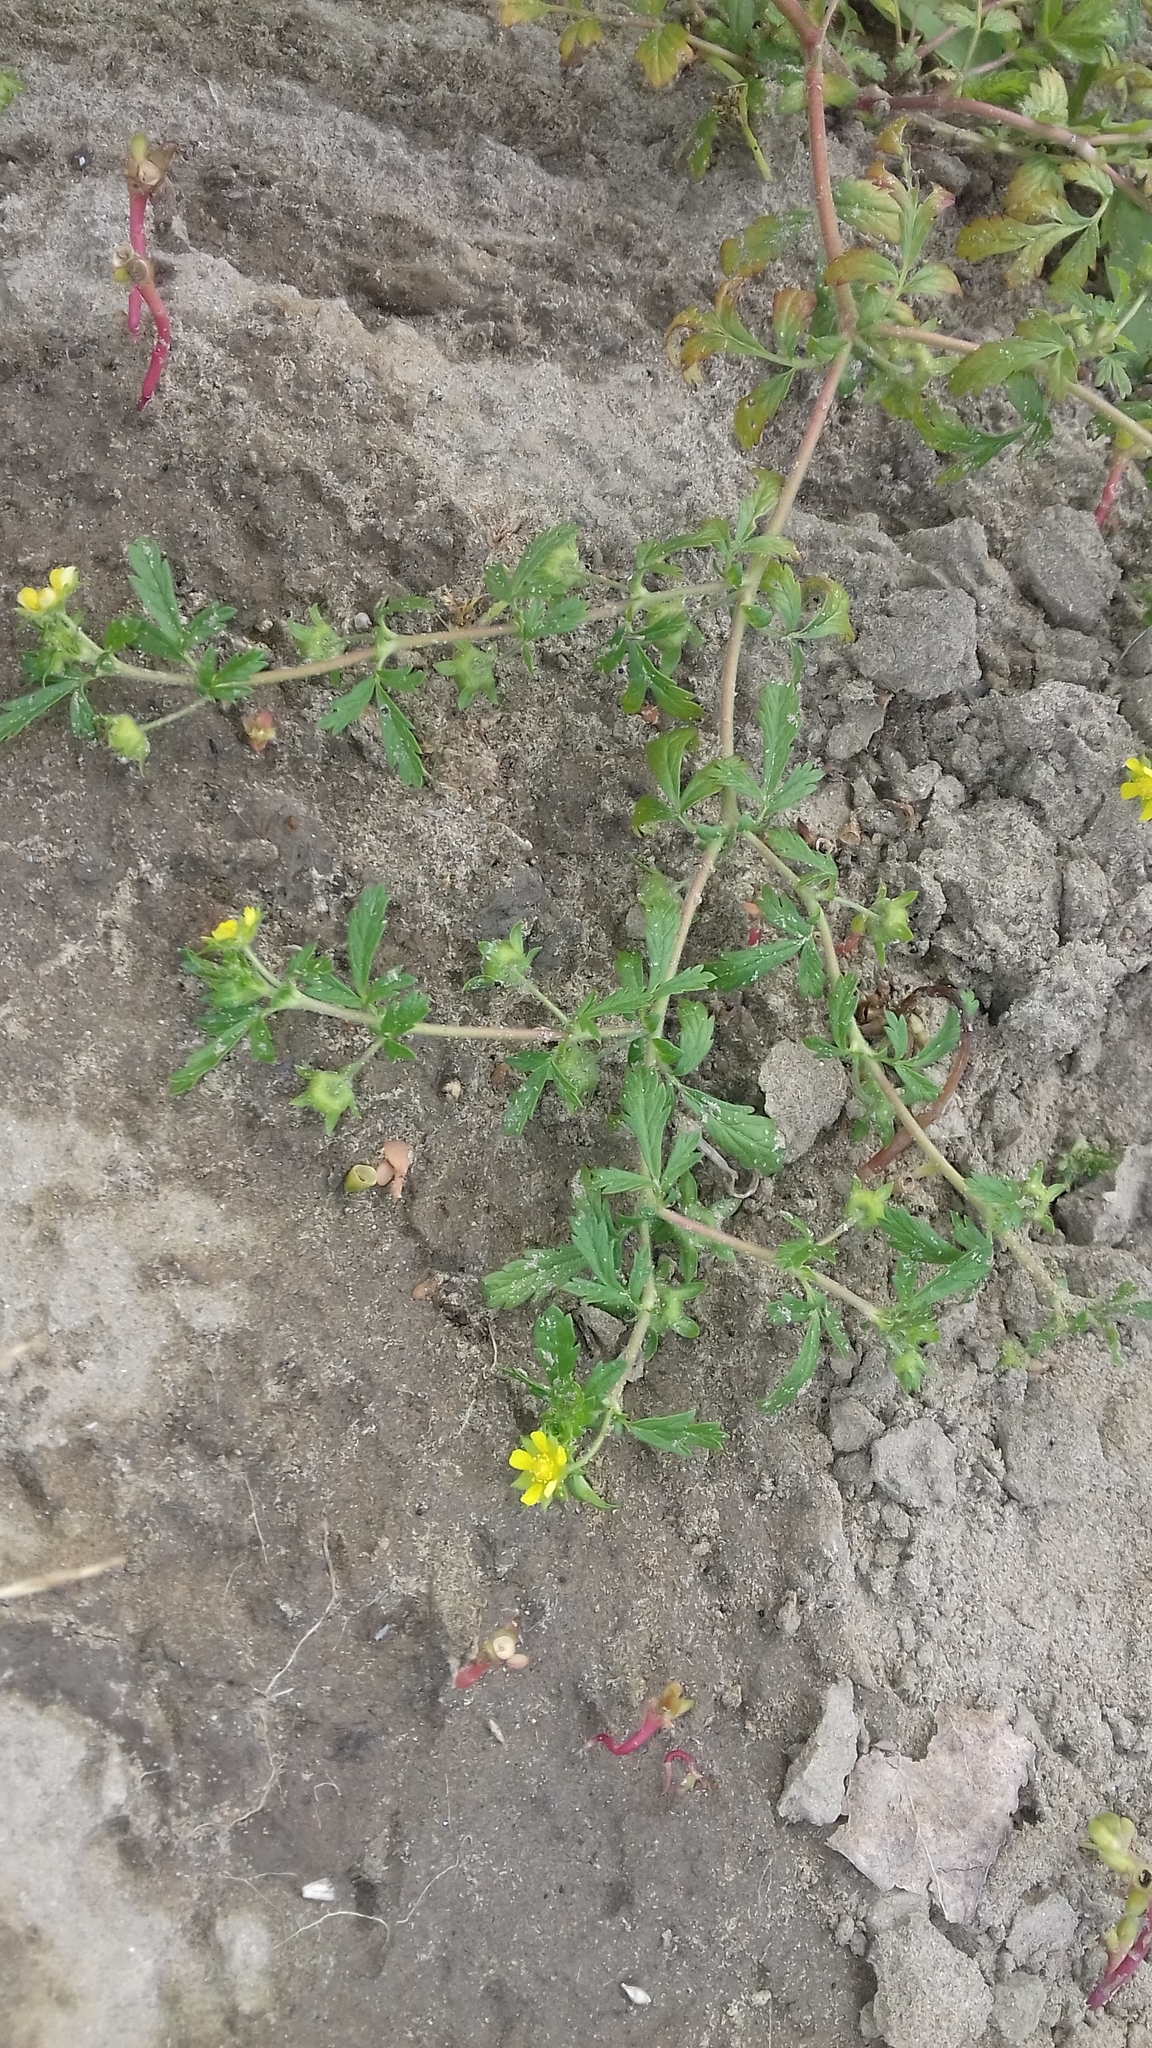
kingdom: Plantae
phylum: Tracheophyta
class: Magnoliopsida
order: Rosales
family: Rosaceae
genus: Potentilla
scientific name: Potentilla supina
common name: Prostrate cinquefoil
